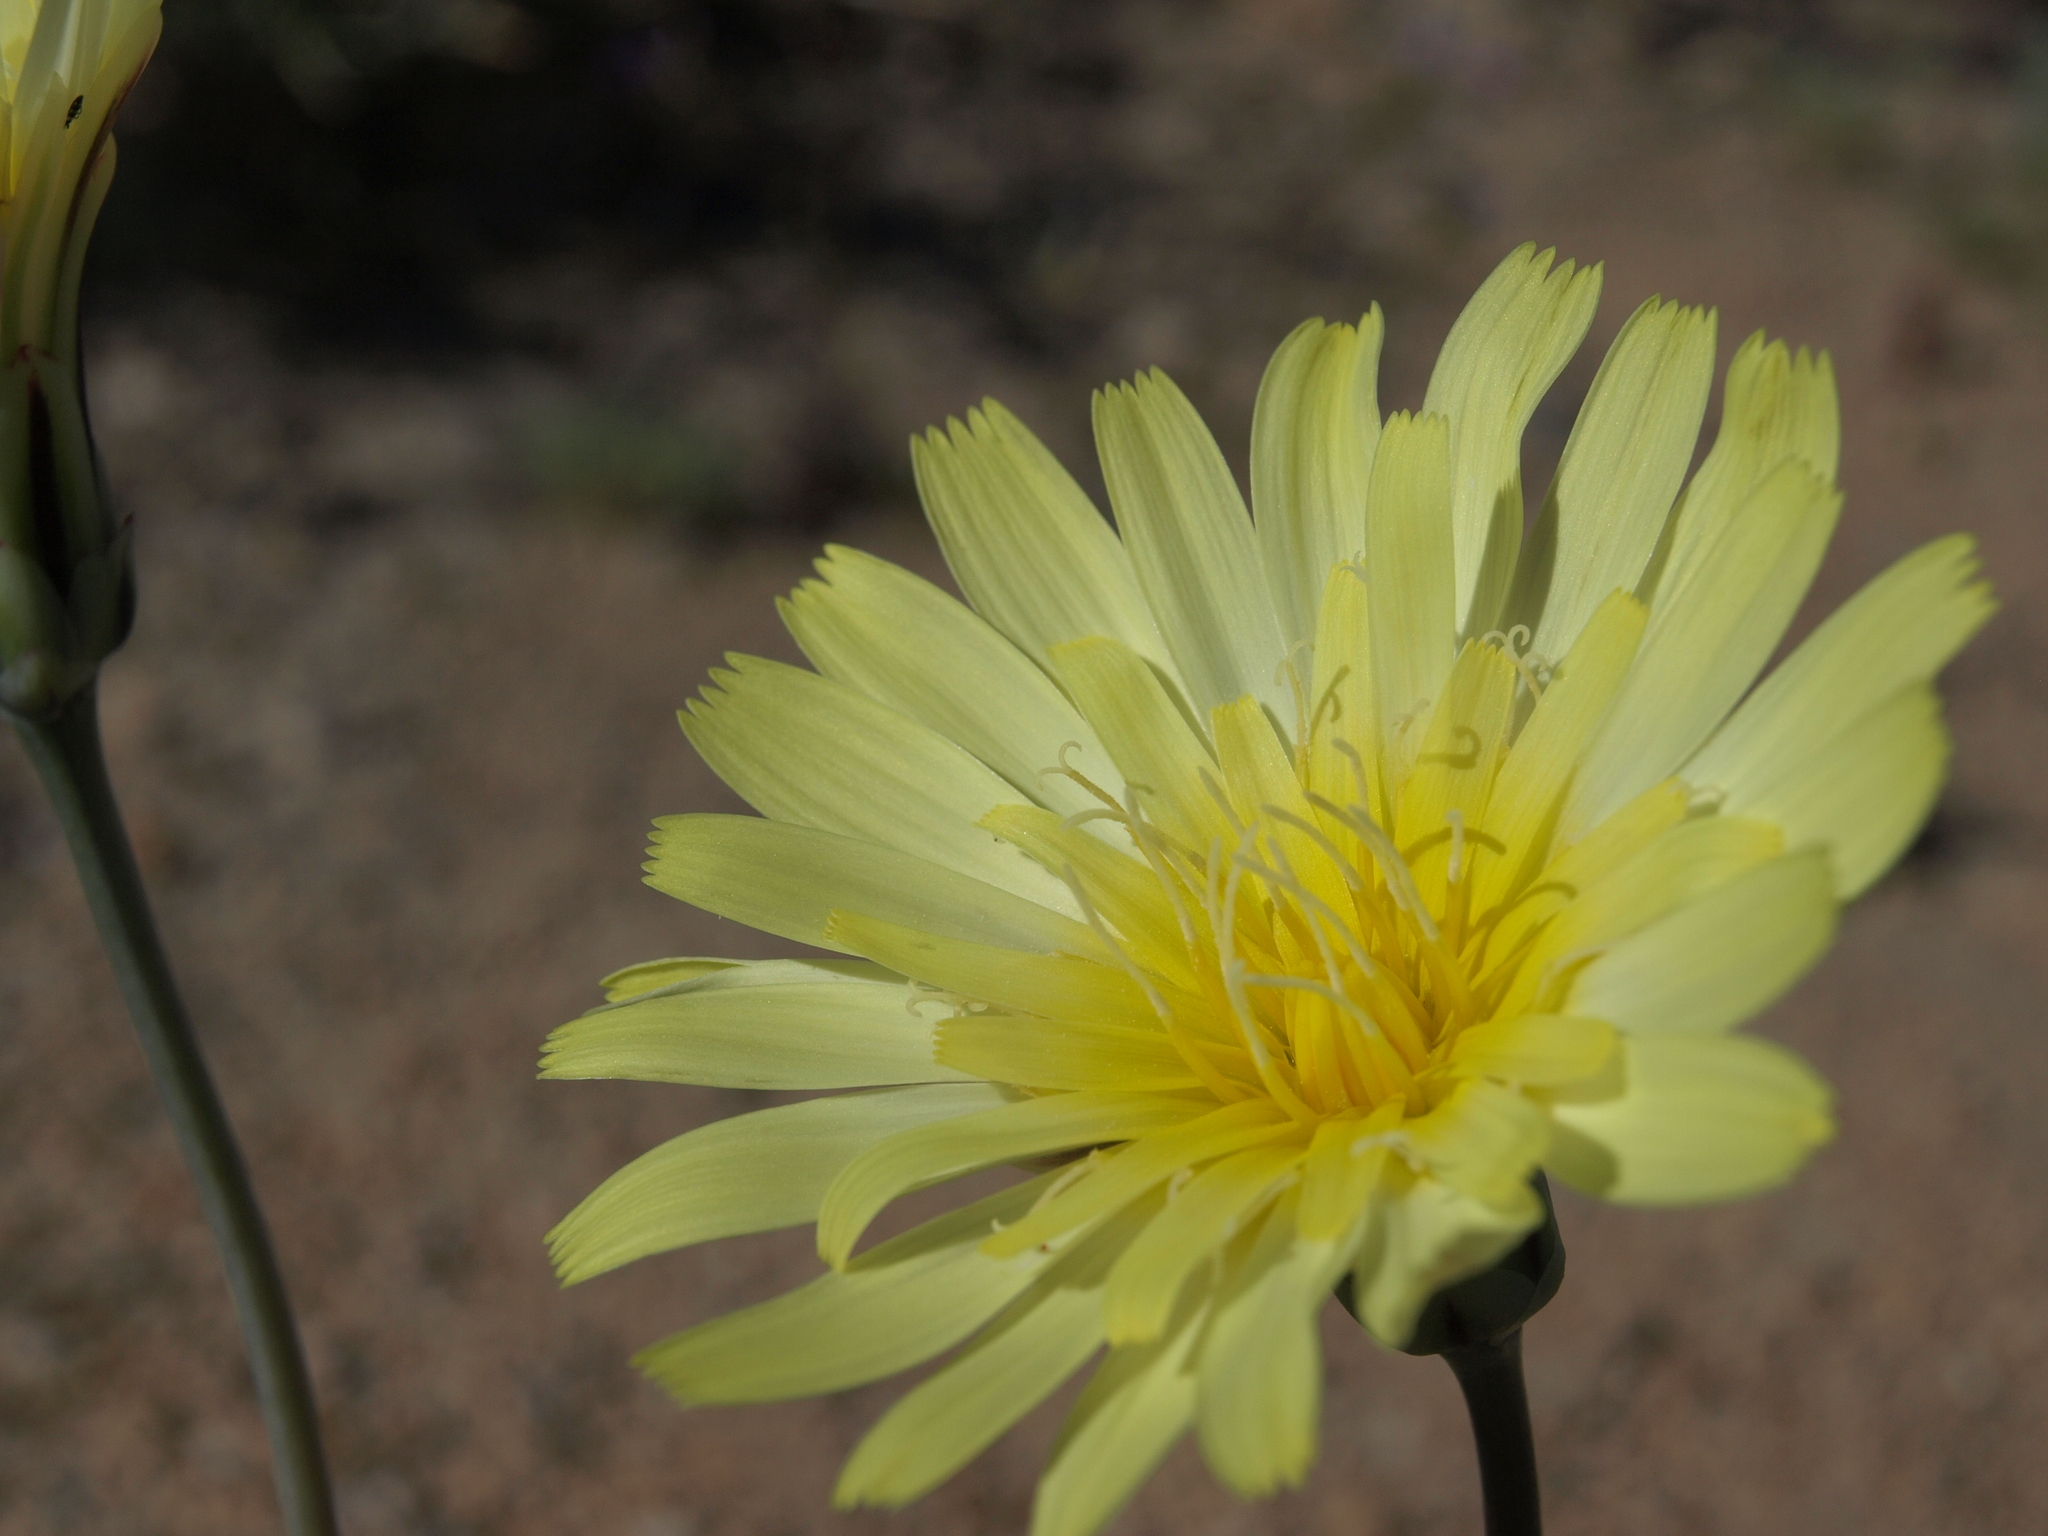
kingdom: Plantae
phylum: Tracheophyta
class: Magnoliopsida
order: Asterales
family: Asteraceae
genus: Anisocoma
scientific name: Anisocoma acaulis
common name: Scalebud
